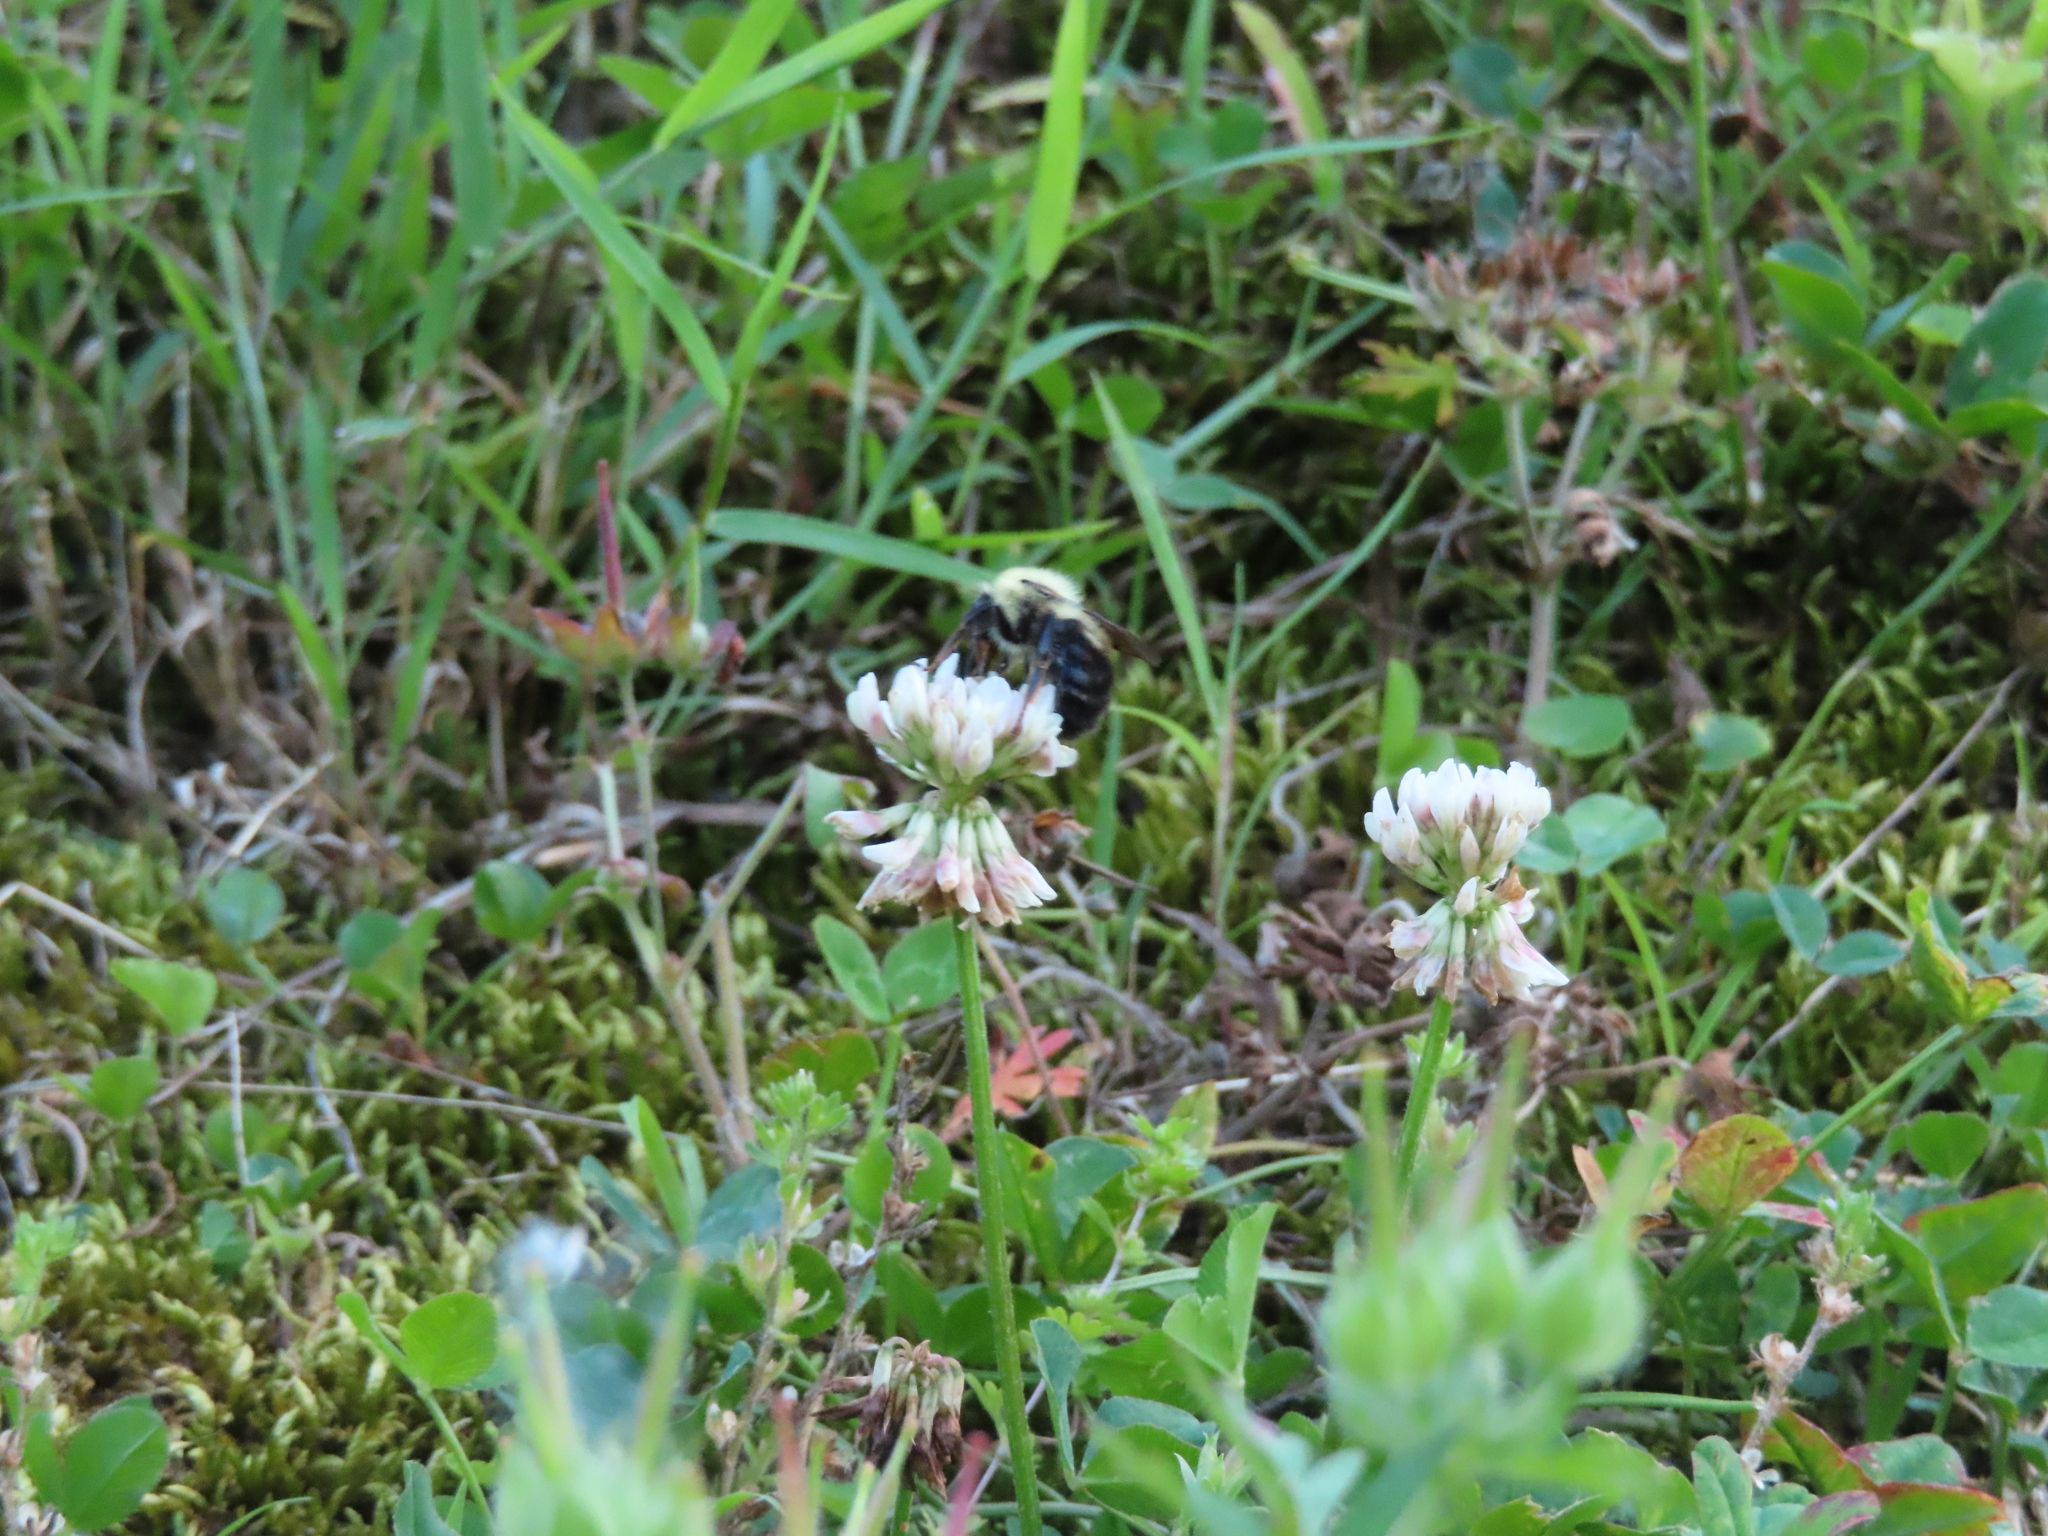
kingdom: Animalia
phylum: Arthropoda
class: Insecta
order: Hymenoptera
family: Apidae
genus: Bombus
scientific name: Bombus bimaculatus
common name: Two-spotted bumble bee
